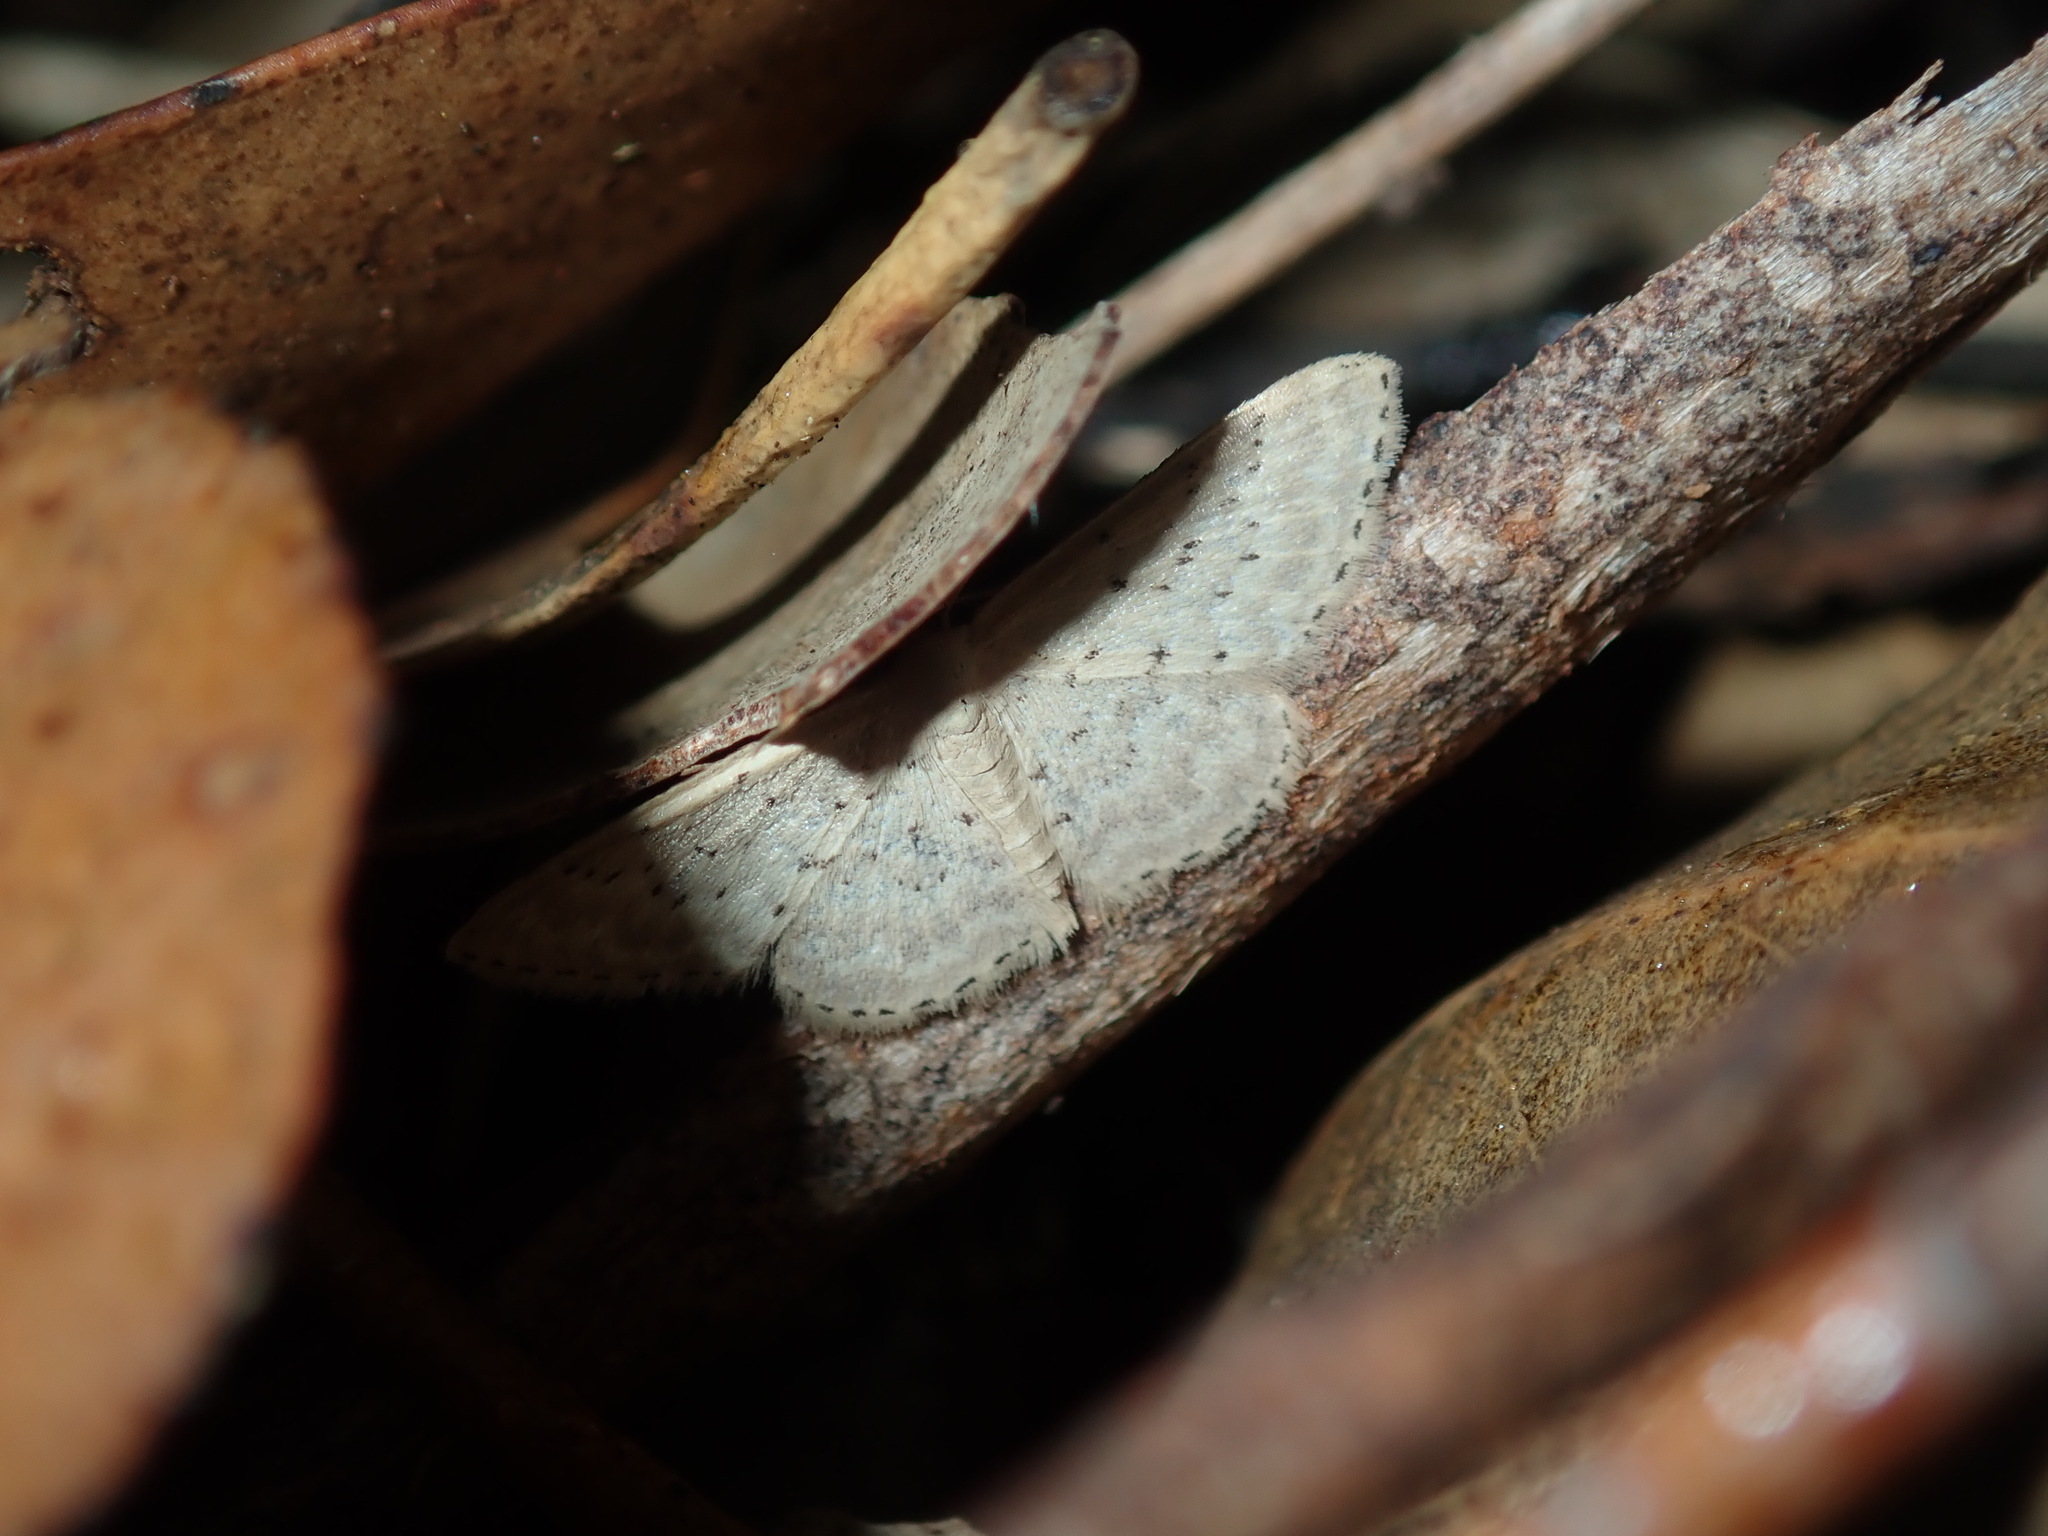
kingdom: Animalia
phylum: Arthropoda
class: Insecta
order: Lepidoptera
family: Geometridae
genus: Idaea
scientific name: Idaea philocosma
